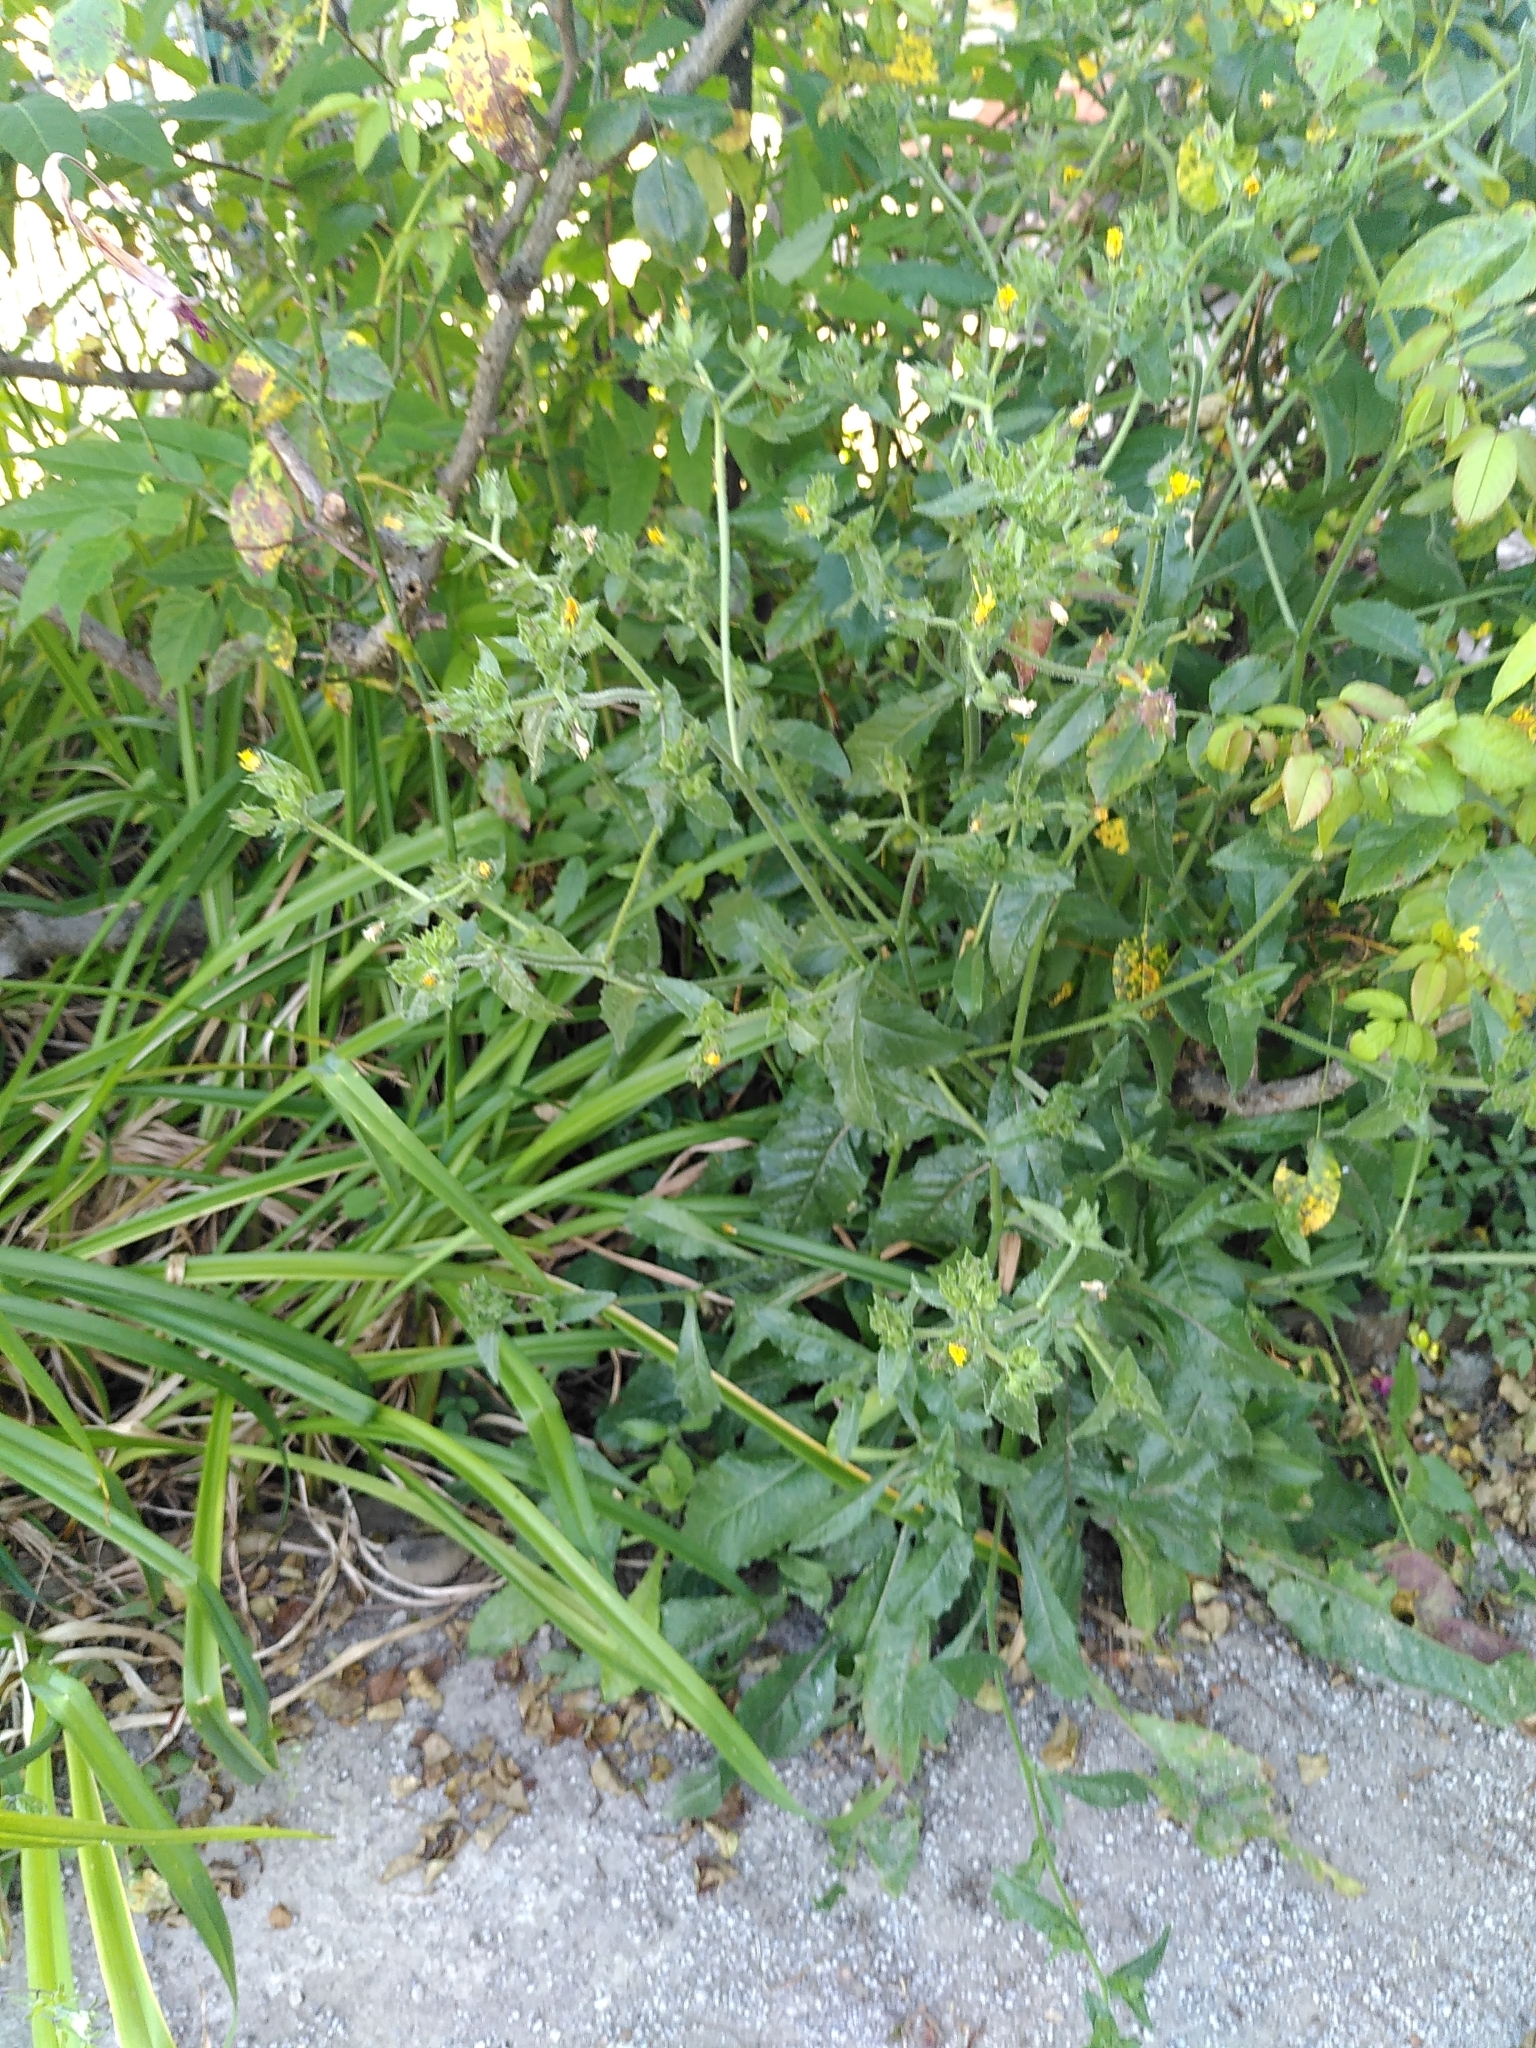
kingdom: Plantae
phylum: Tracheophyta
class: Magnoliopsida
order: Asterales
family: Asteraceae
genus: Helminthotheca
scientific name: Helminthotheca echioides
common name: Ox-tongue
